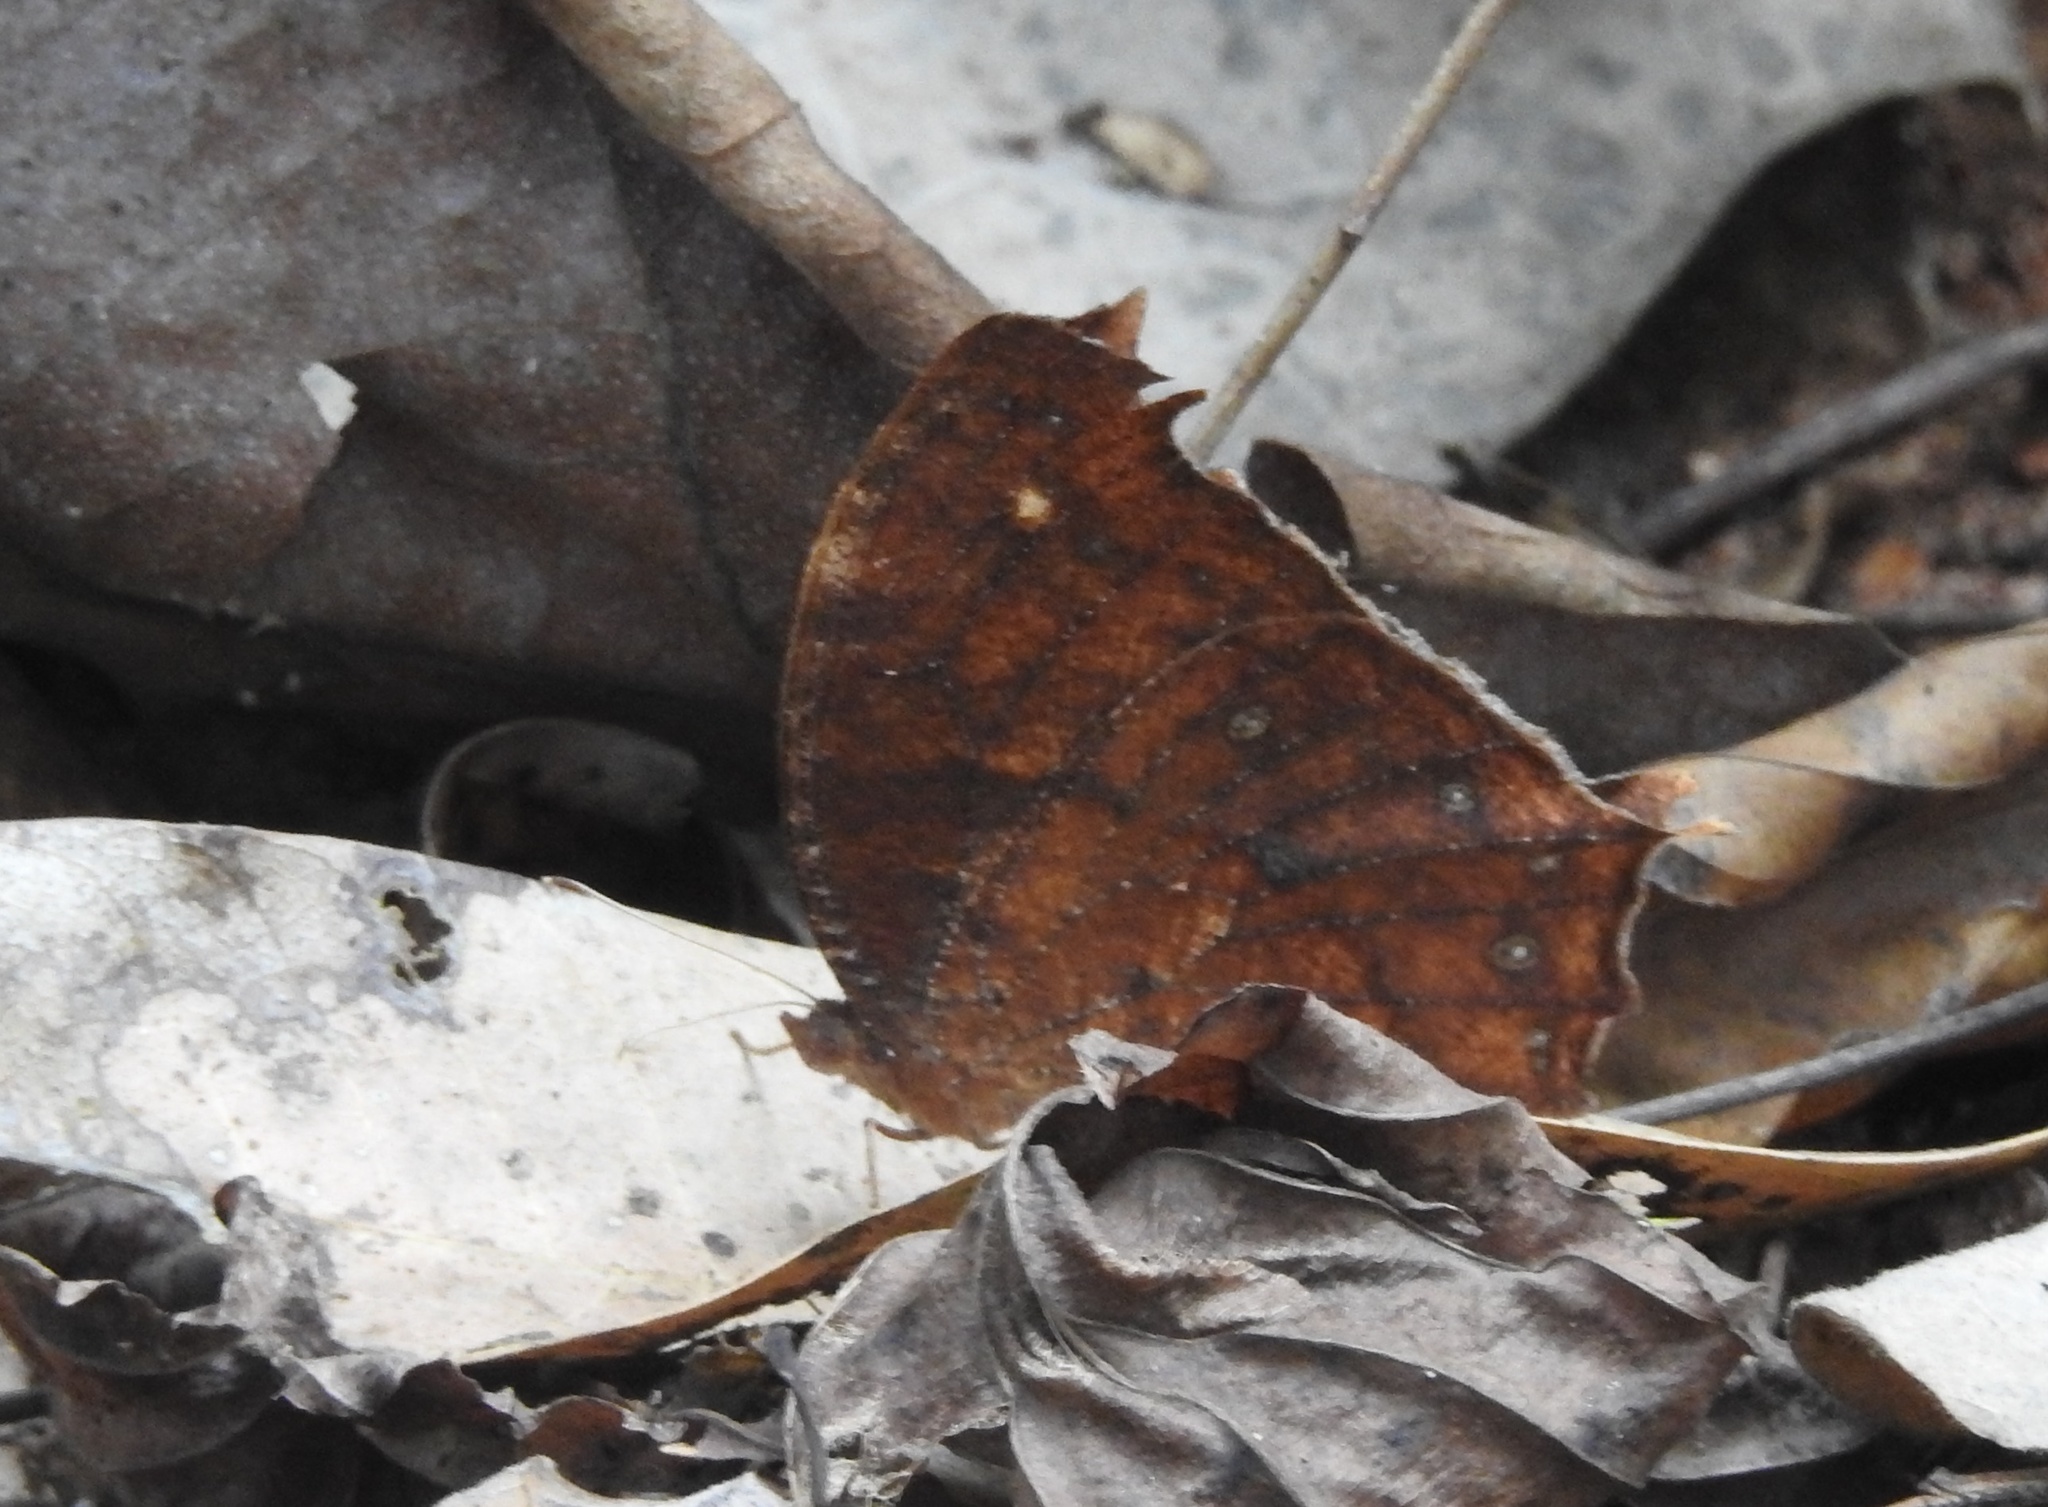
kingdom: Animalia
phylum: Arthropoda
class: Insecta
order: Lepidoptera
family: Nymphalidae
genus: Melanitis
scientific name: Melanitis zitenius
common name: Great evening brown
